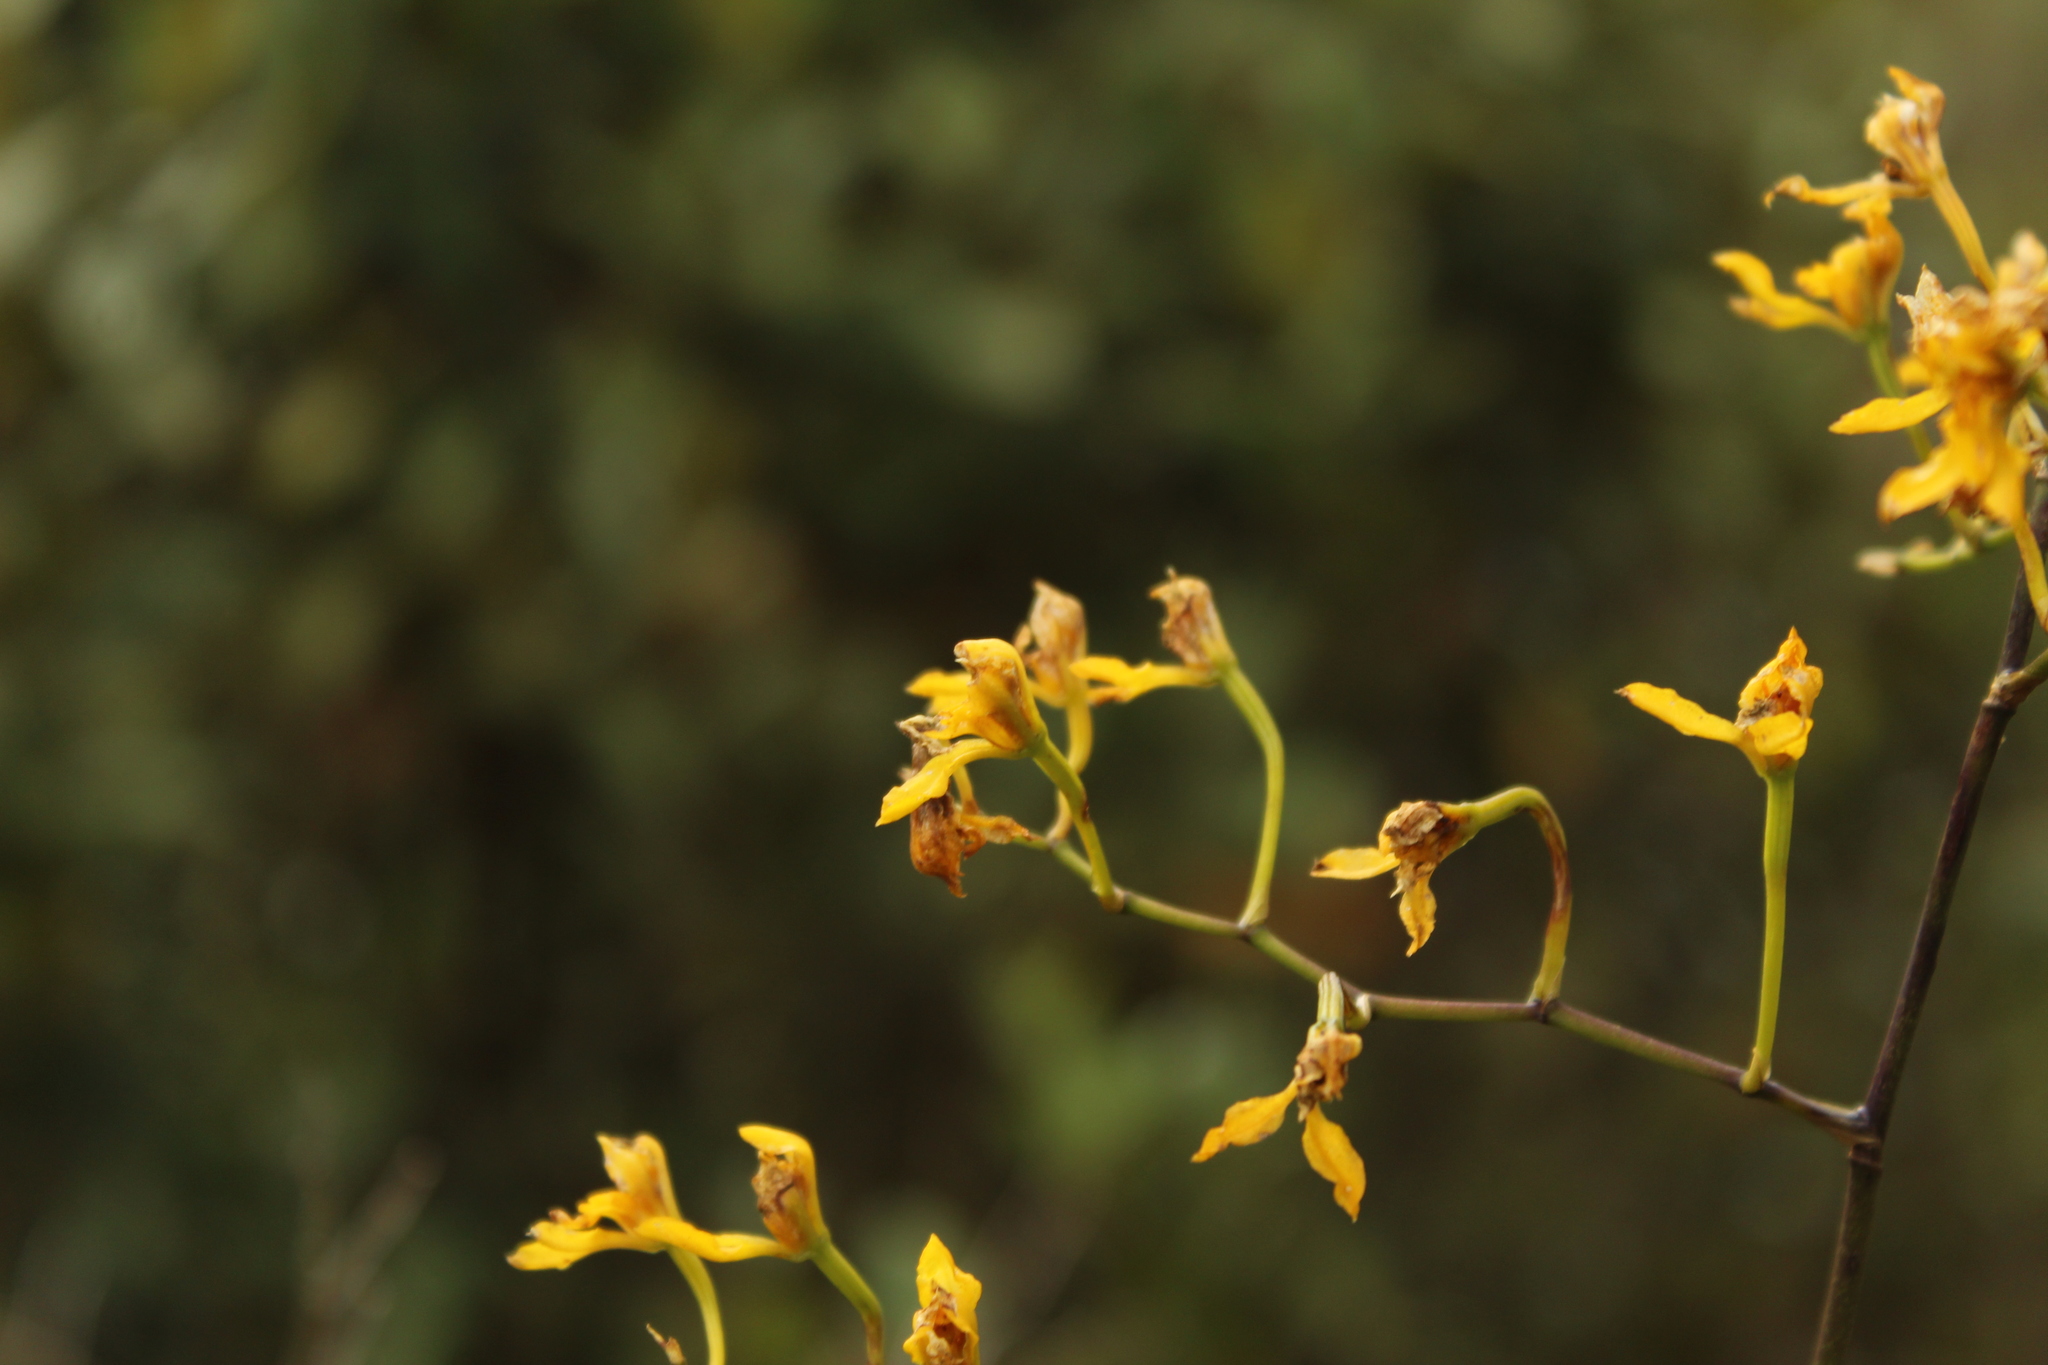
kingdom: Plantae
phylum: Tracheophyta
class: Liliopsida
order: Asparagales
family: Orchidaceae
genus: Cyrtochilum
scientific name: Cyrtochilum densiflorum
